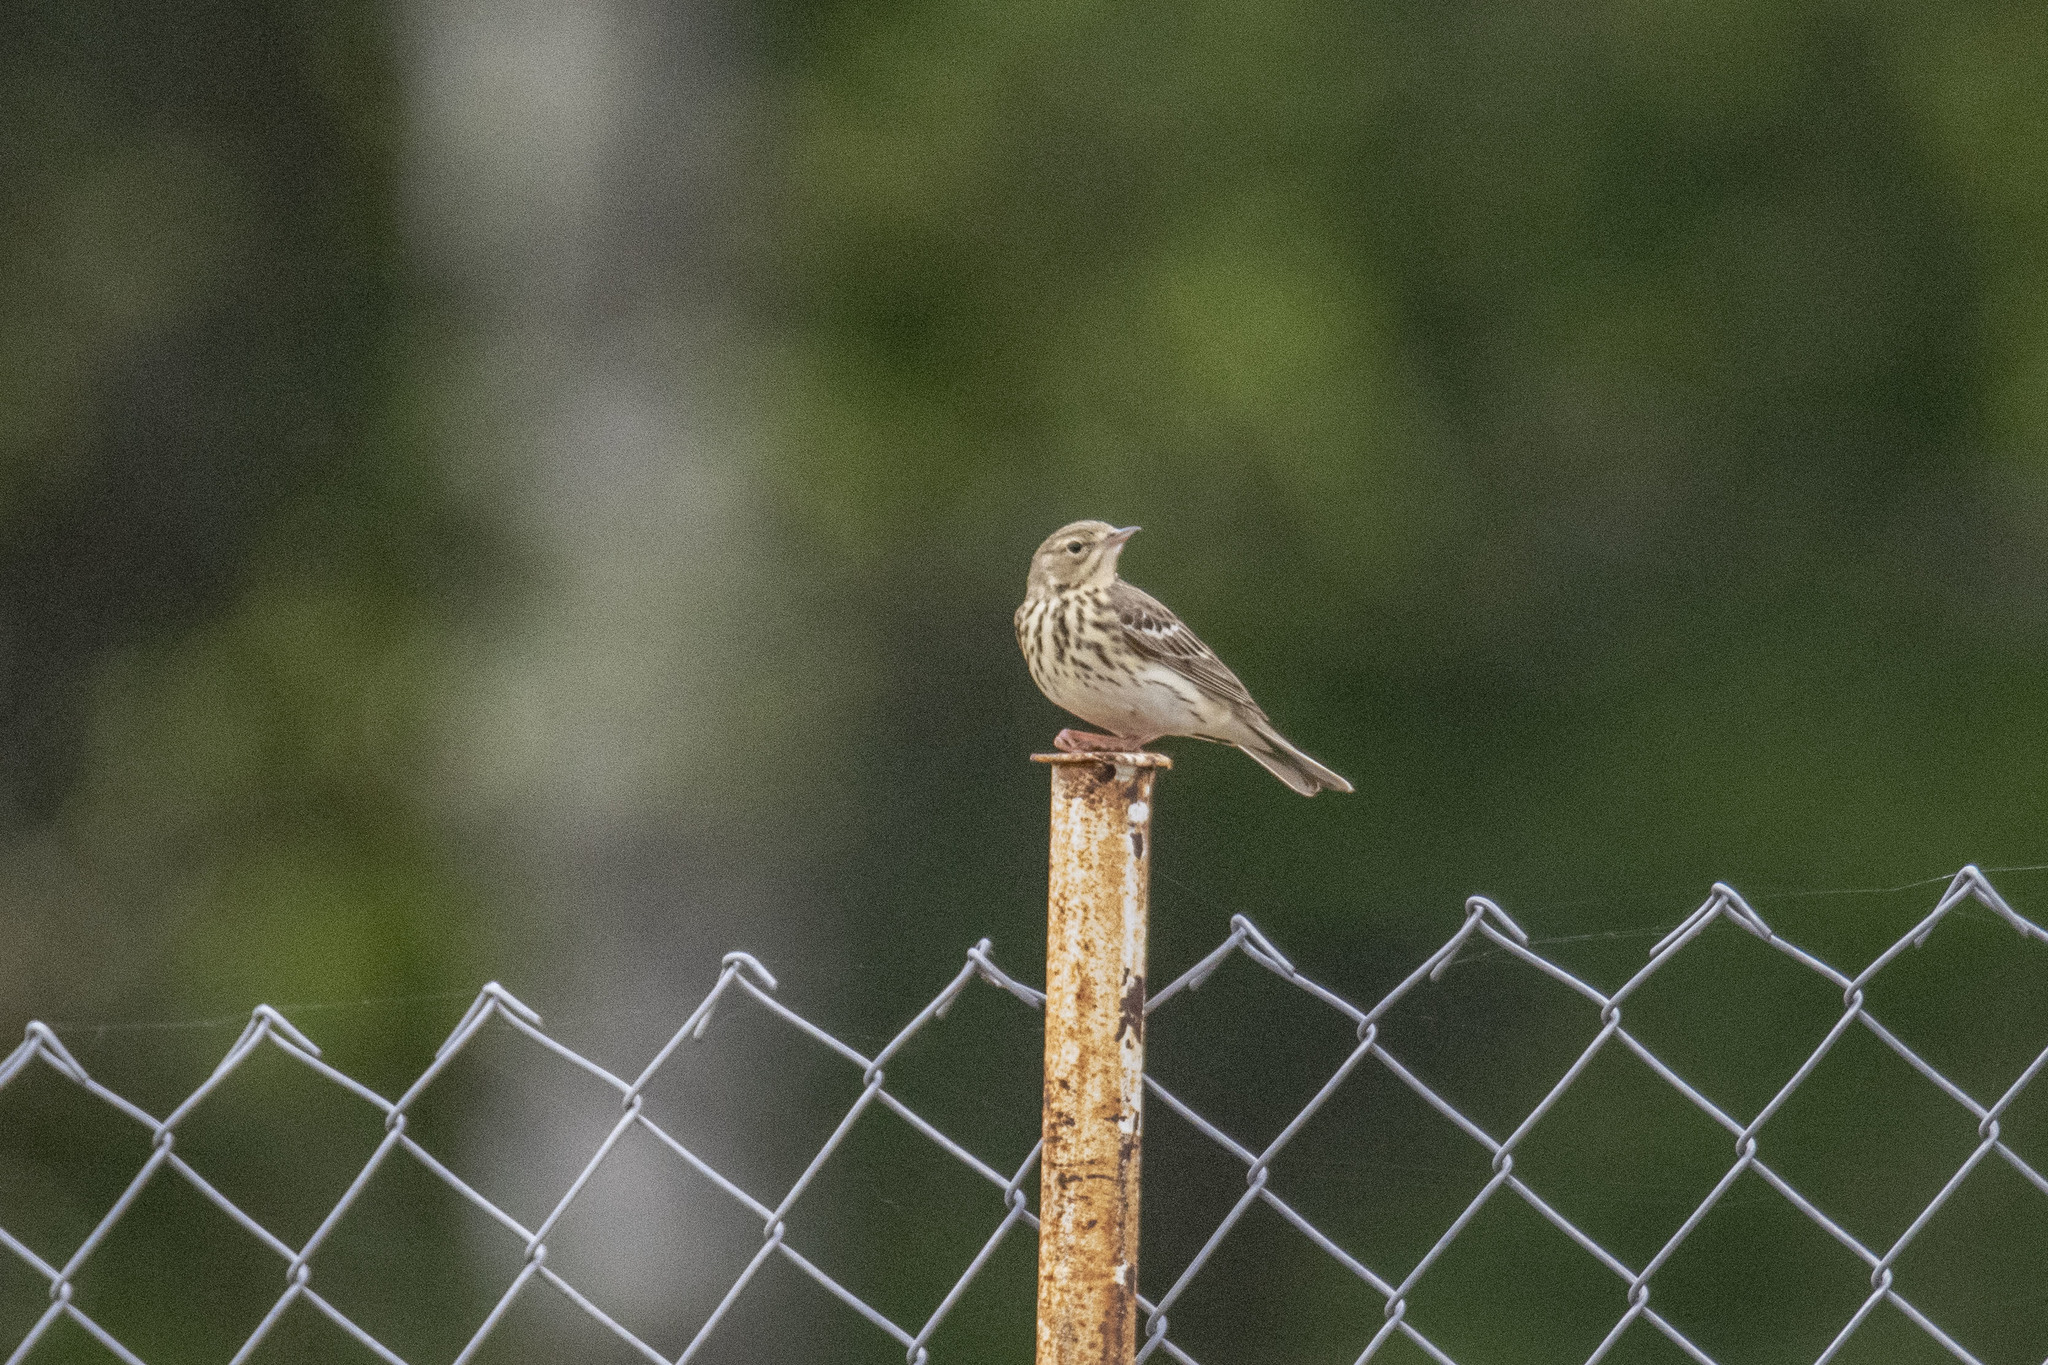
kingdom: Animalia
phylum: Chordata
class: Aves
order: Passeriformes
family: Motacillidae
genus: Anthus
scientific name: Anthus pratensis
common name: Meadow pipit
